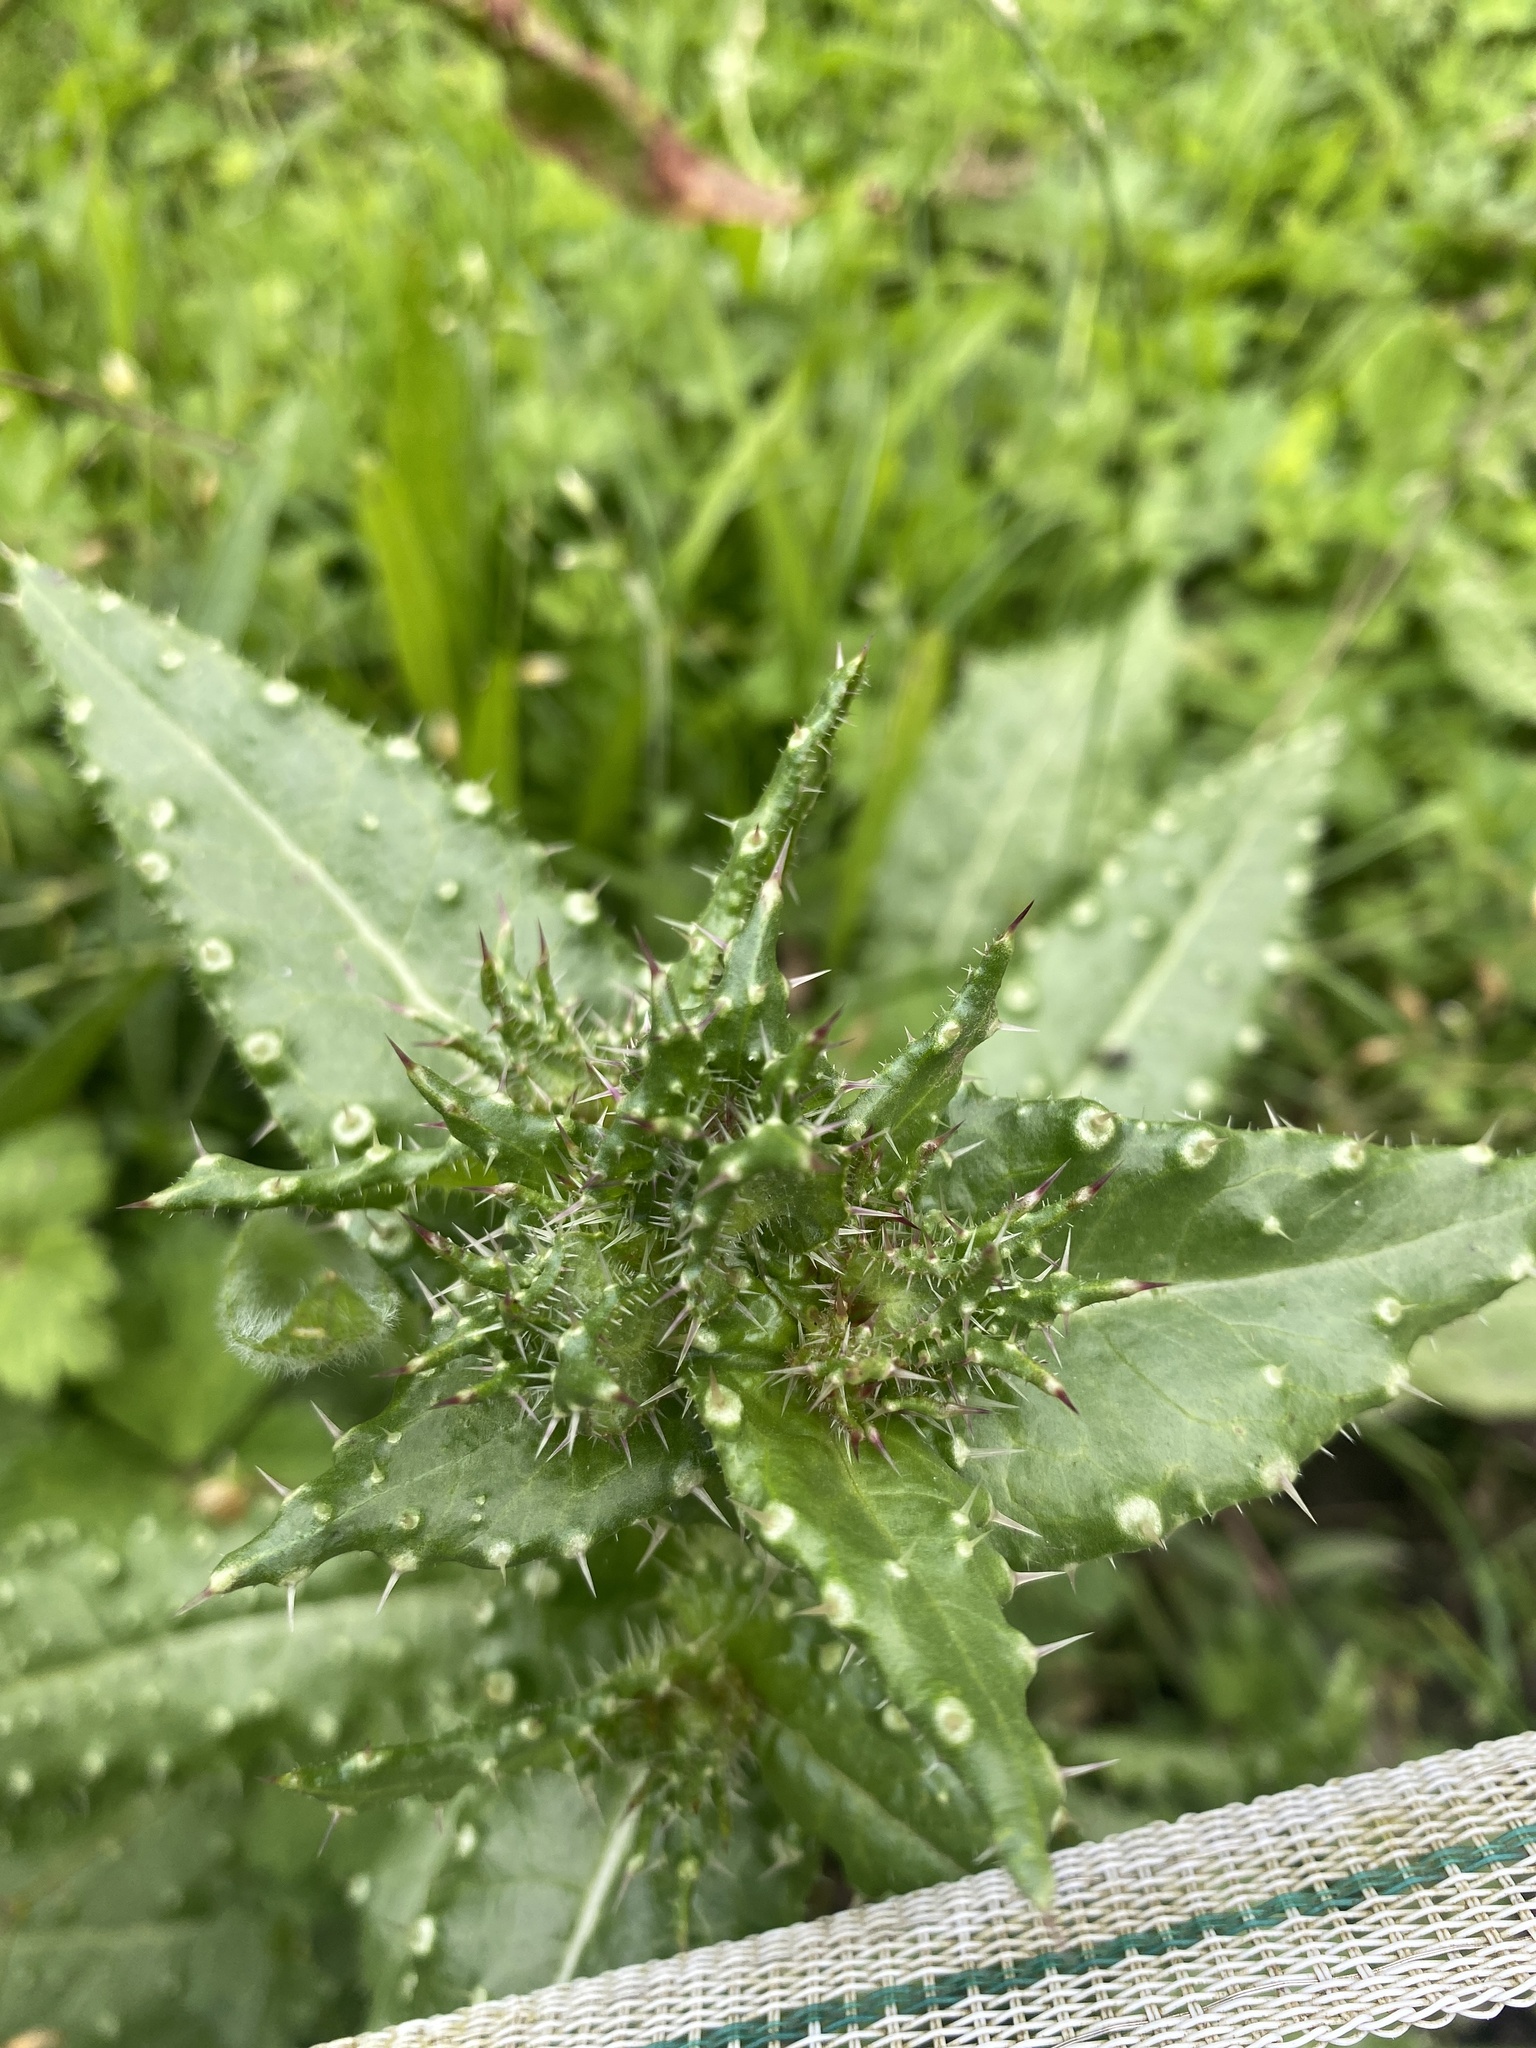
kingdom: Plantae
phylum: Tracheophyta
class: Magnoliopsida
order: Asterales
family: Asteraceae
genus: Helminthotheca
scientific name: Helminthotheca echioides
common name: Ox-tongue
